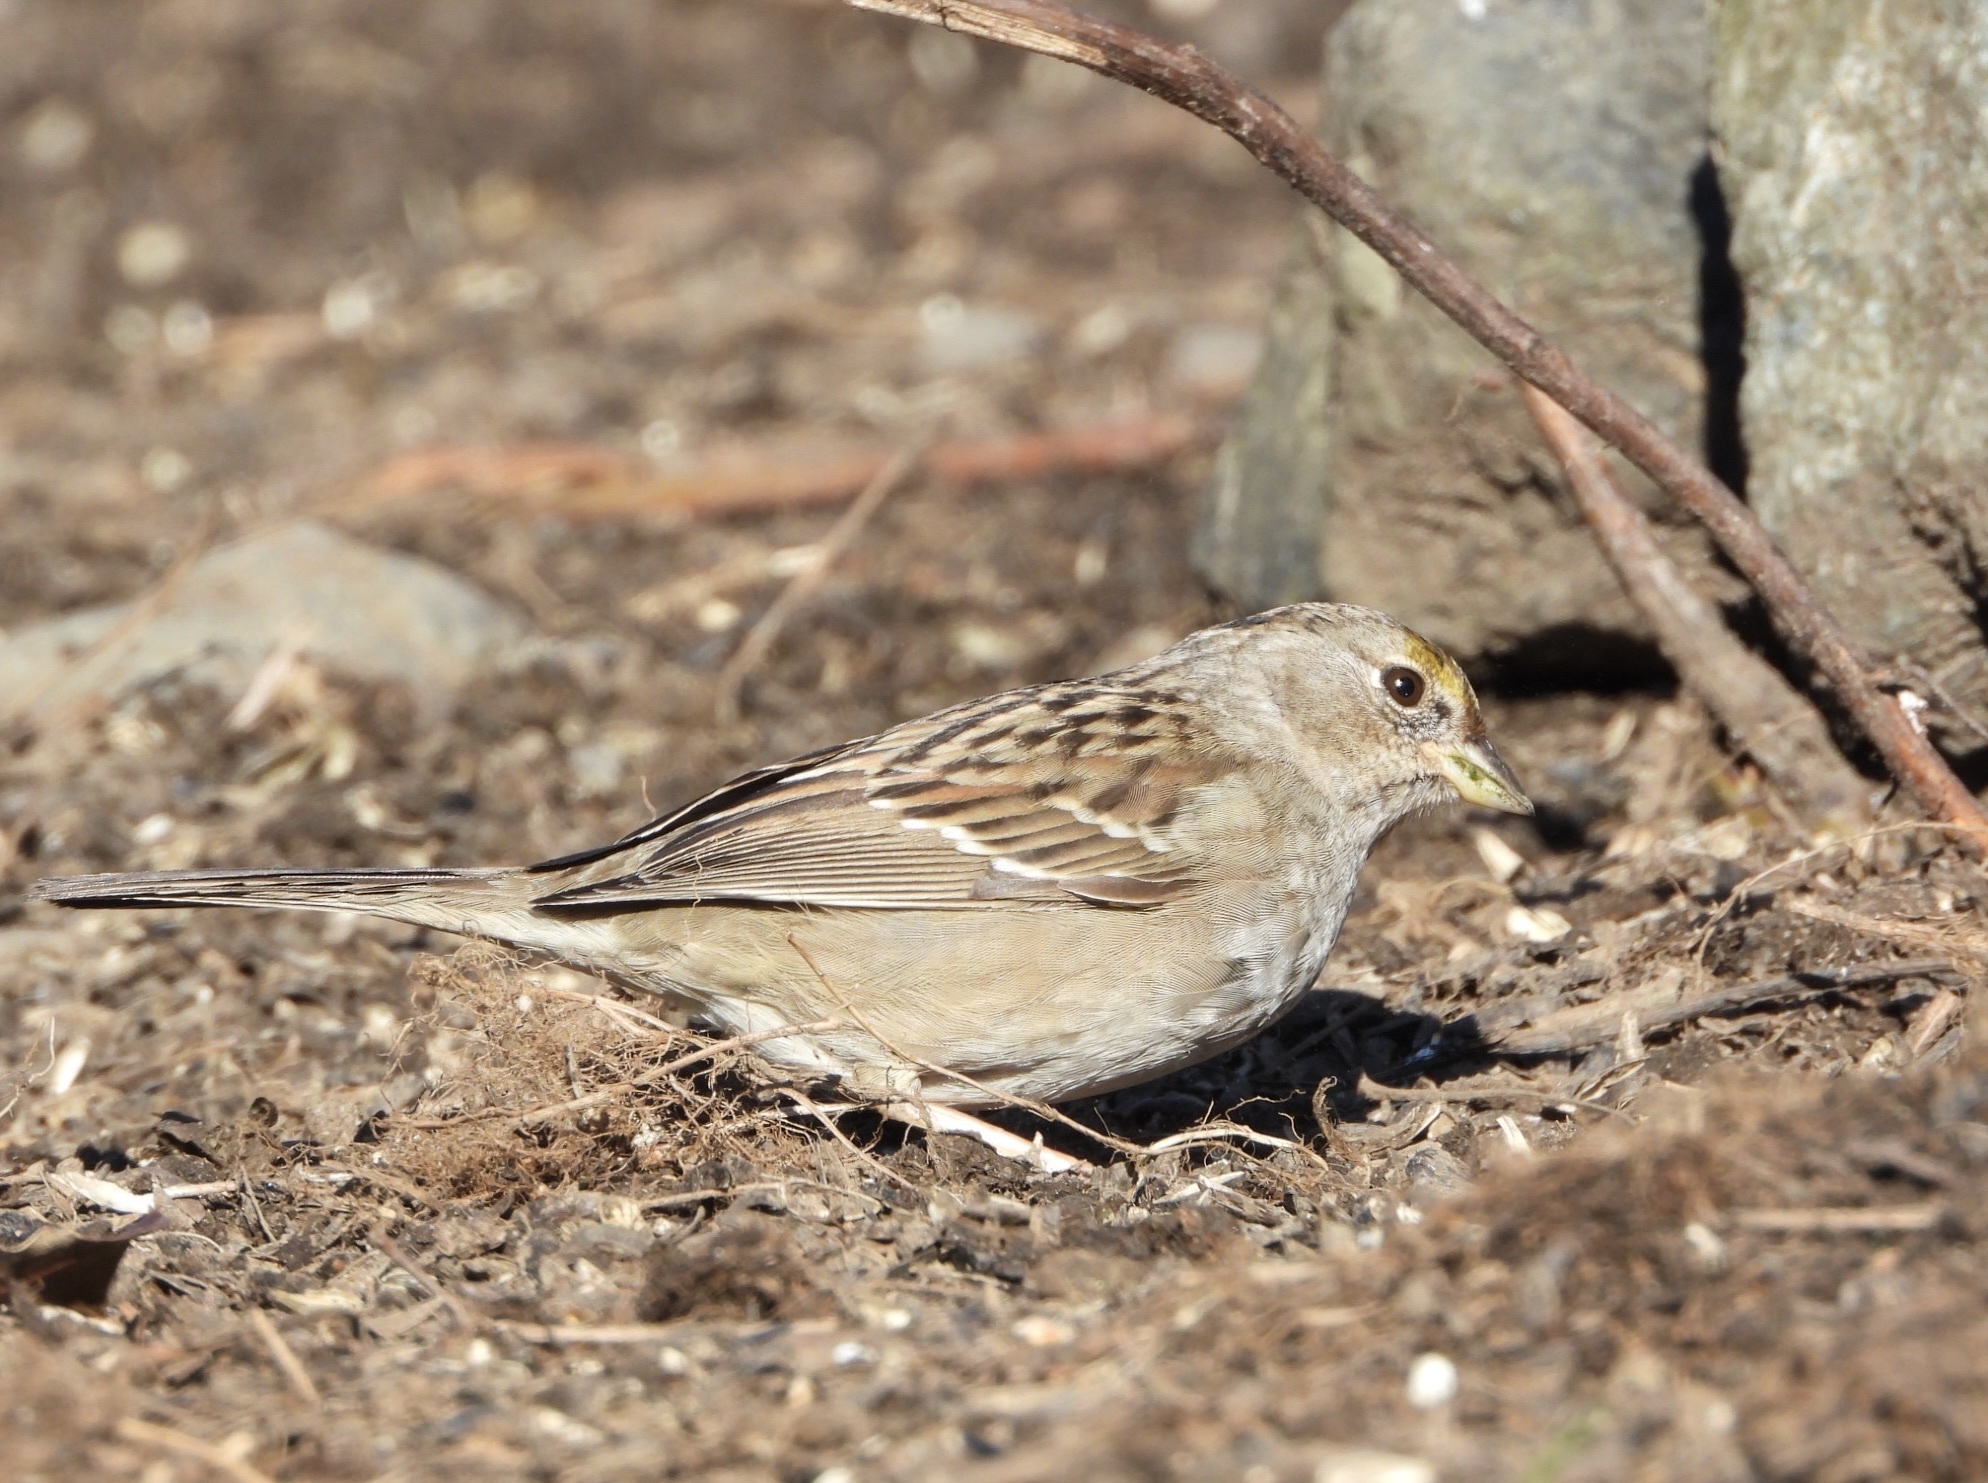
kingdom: Animalia
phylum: Chordata
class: Aves
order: Passeriformes
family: Passerellidae
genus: Zonotrichia
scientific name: Zonotrichia atricapilla
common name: Golden-crowned sparrow
